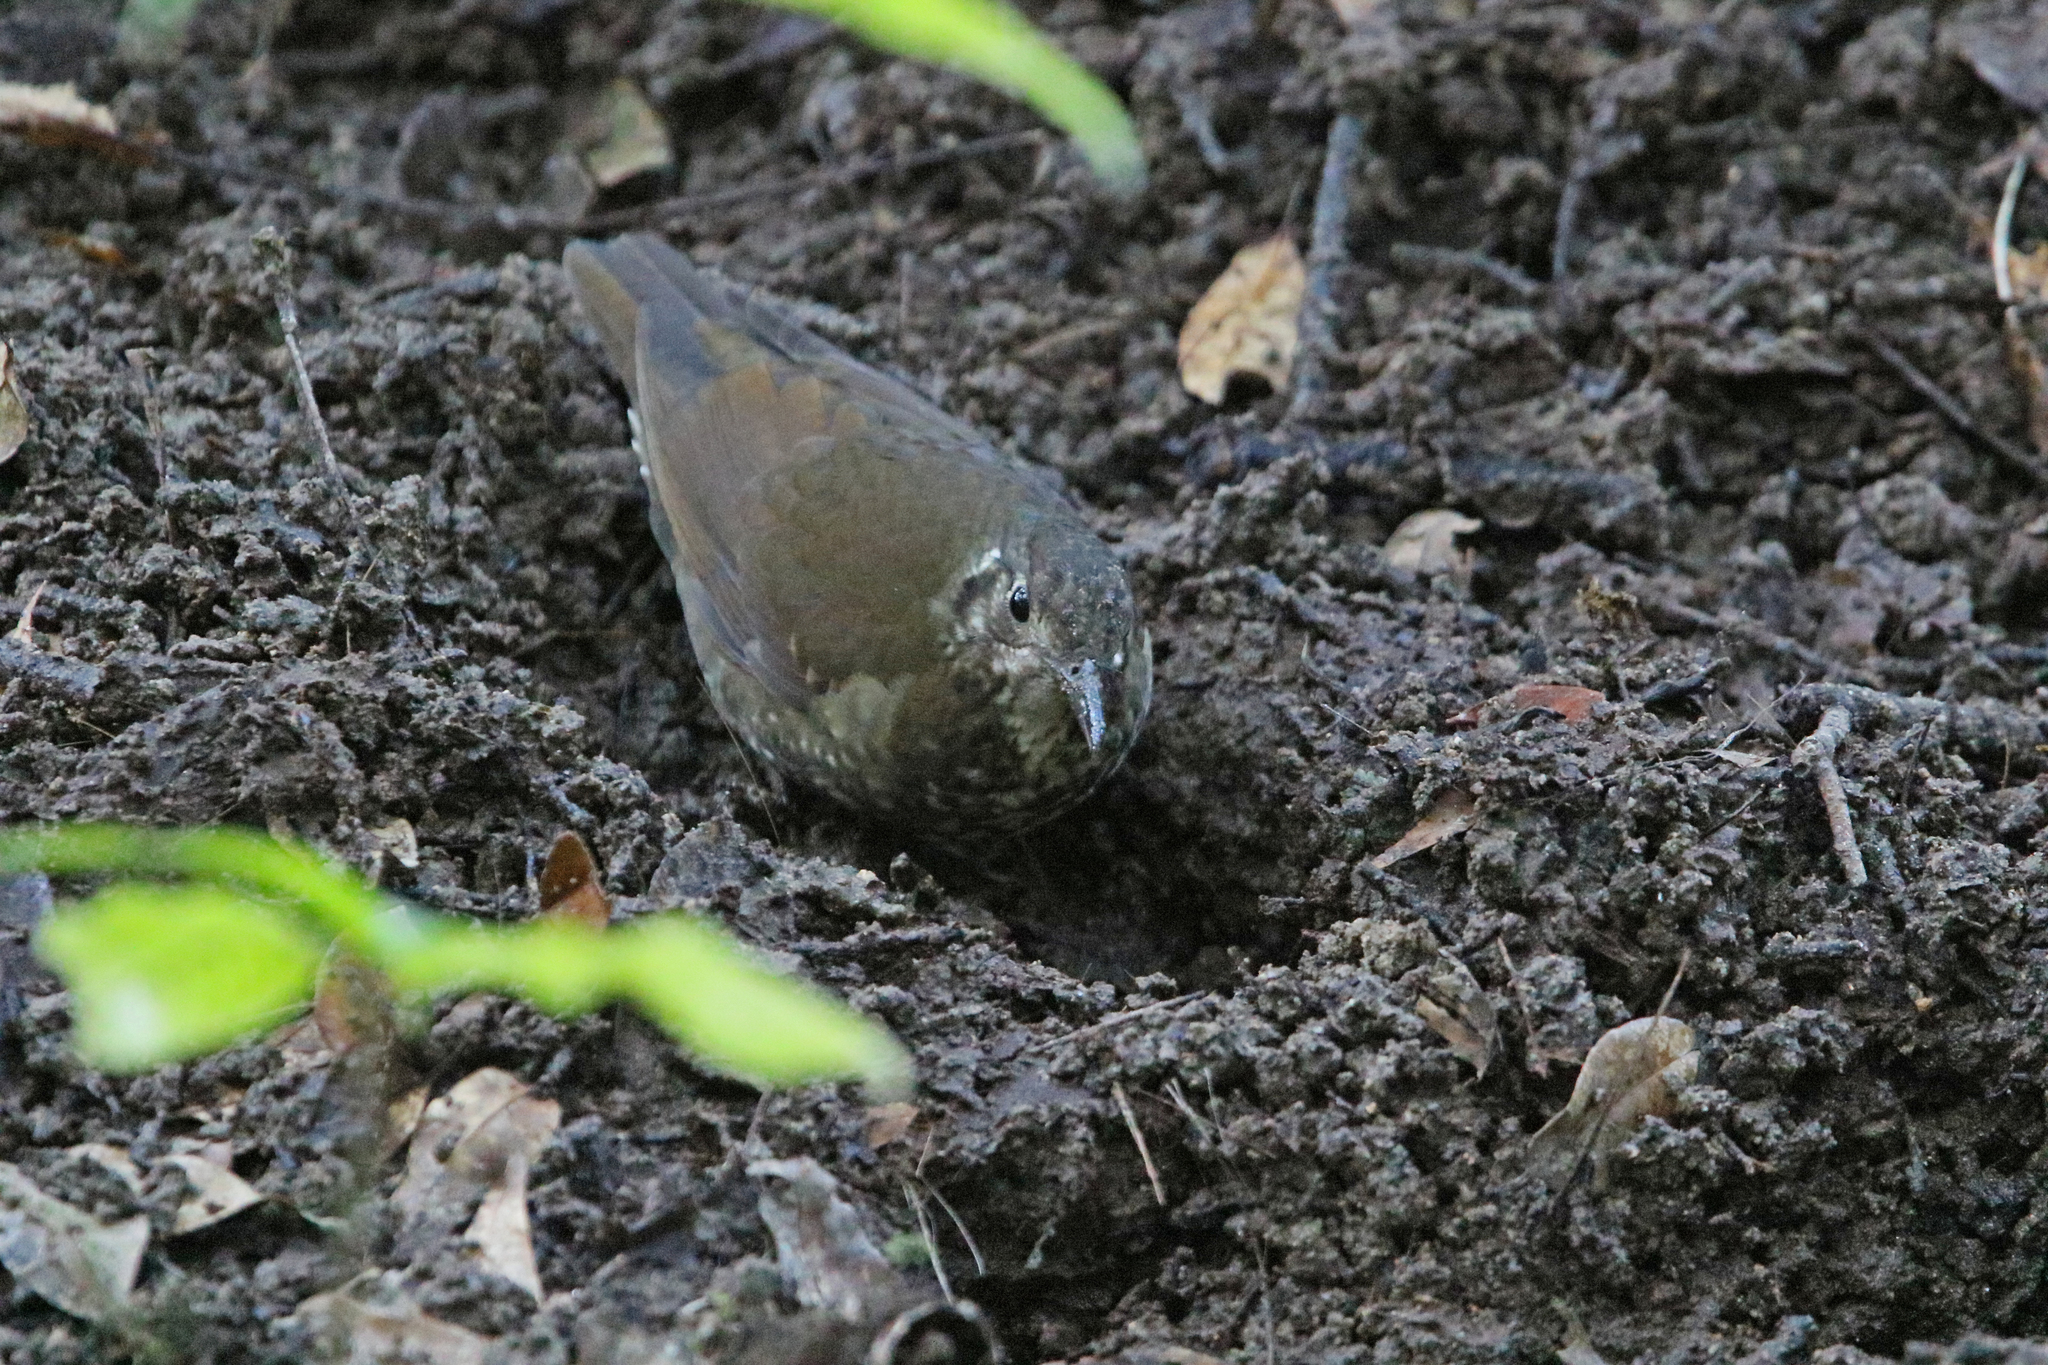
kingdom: Animalia
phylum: Chordata
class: Aves
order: Passeriformes
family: Turdidae
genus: Zoothera
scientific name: Zoothera marginata
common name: Dark-sided thrush
